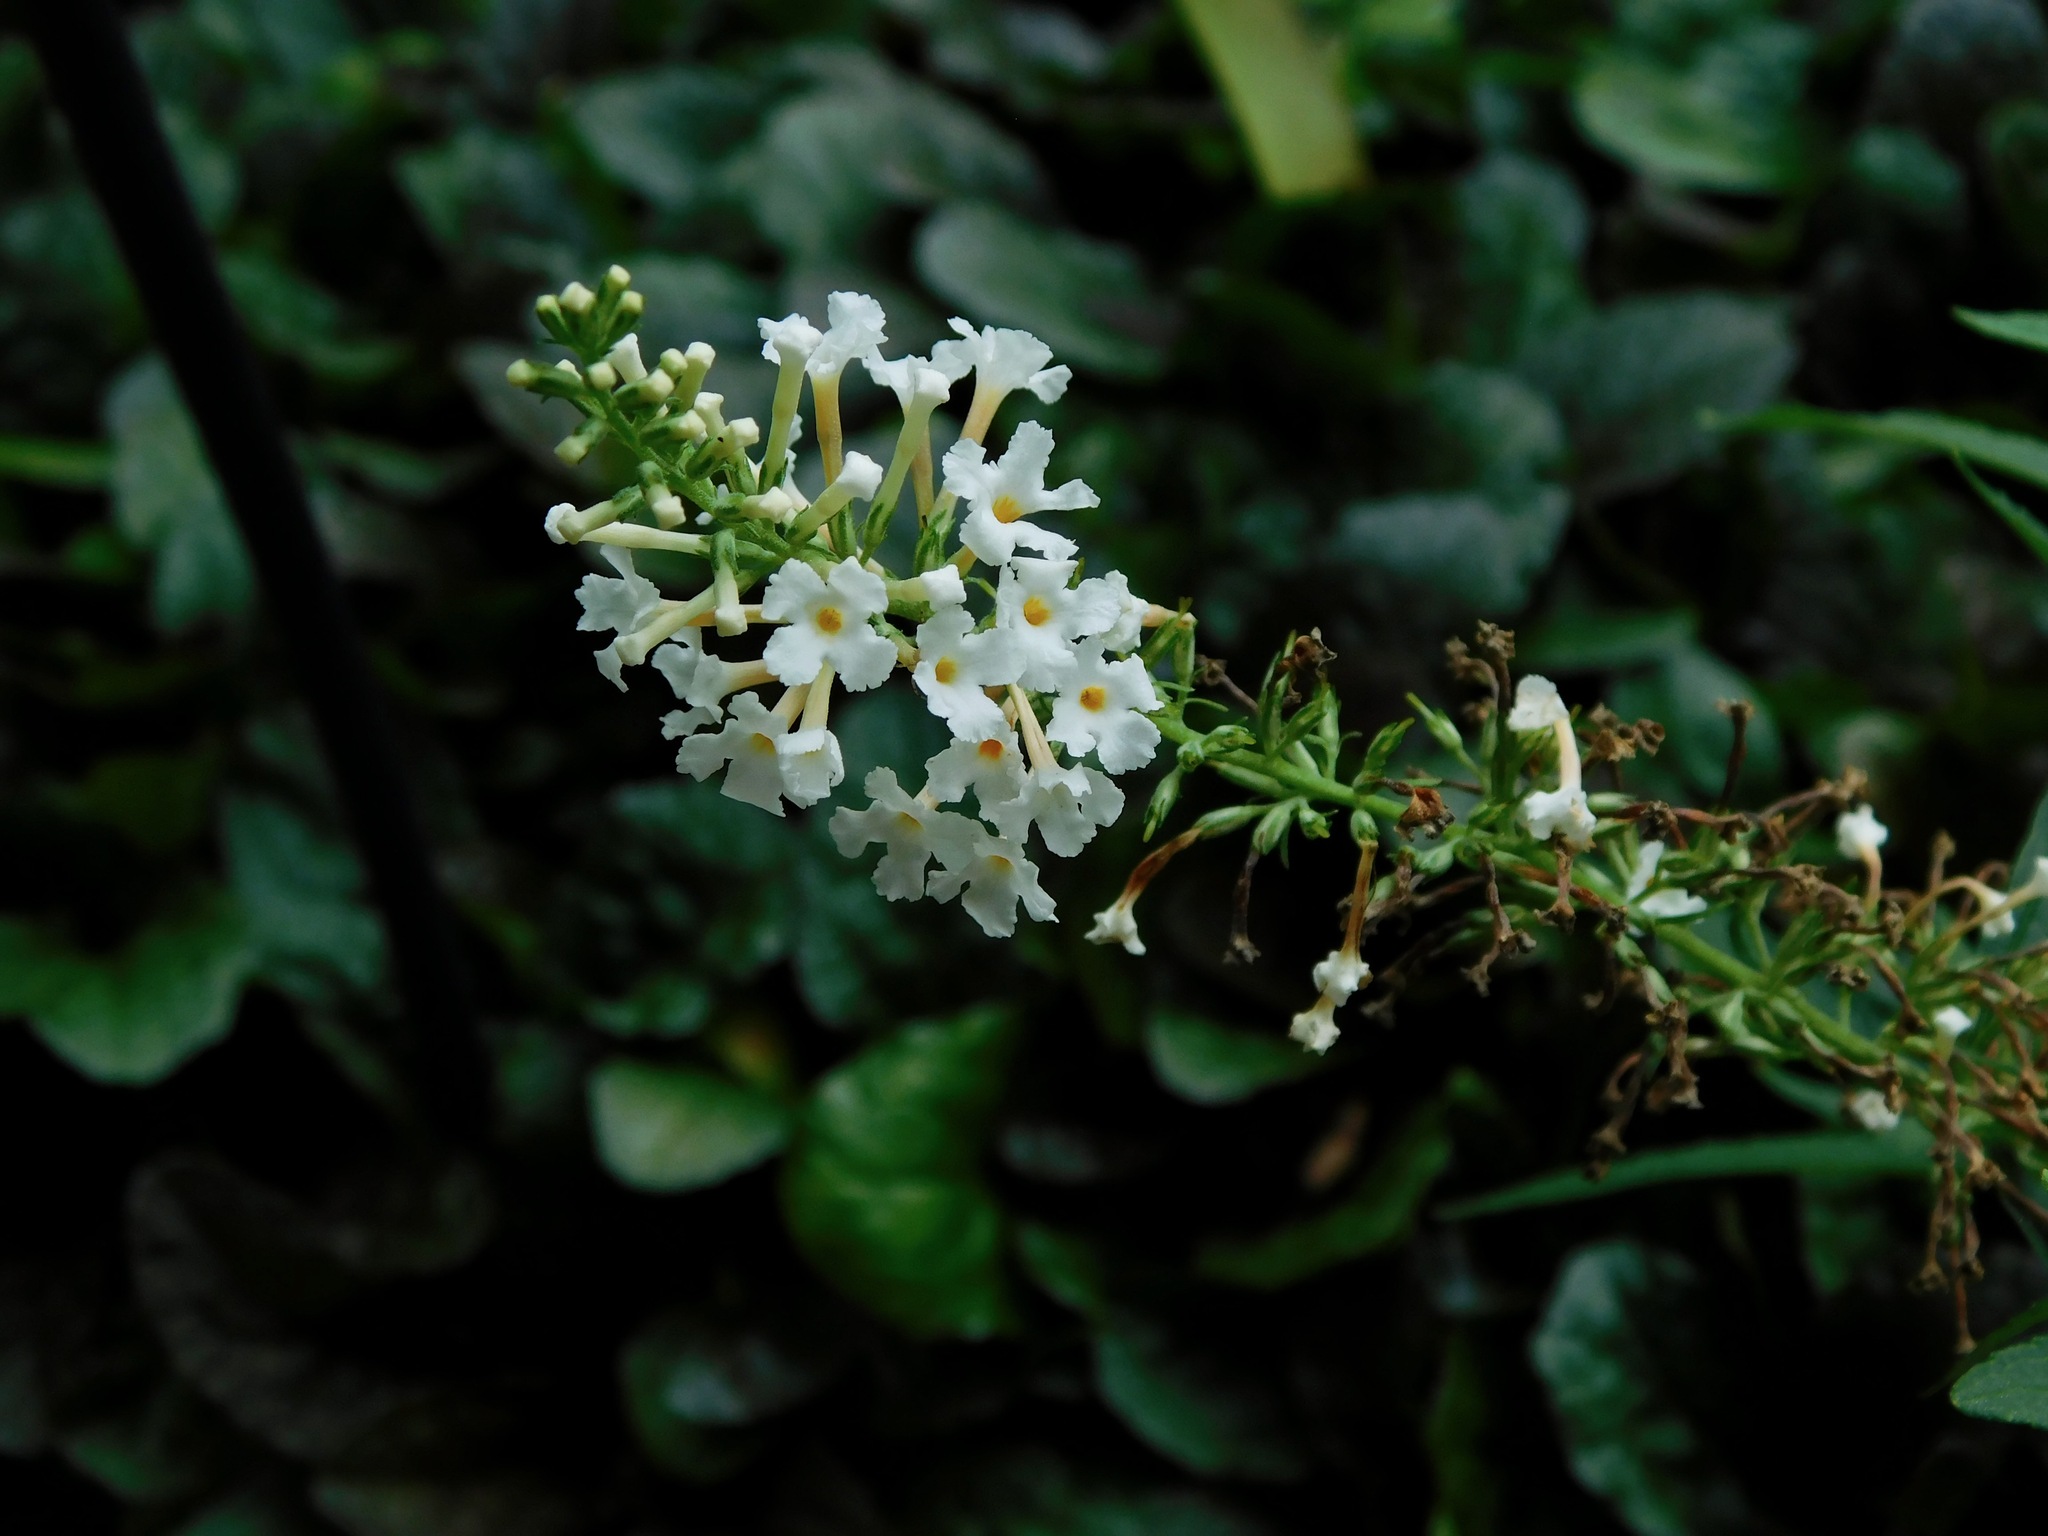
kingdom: Plantae
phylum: Tracheophyta
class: Magnoliopsida
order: Lamiales
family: Scrophulariaceae
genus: Buddleja
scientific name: Buddleja asiatica
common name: Dog tail
